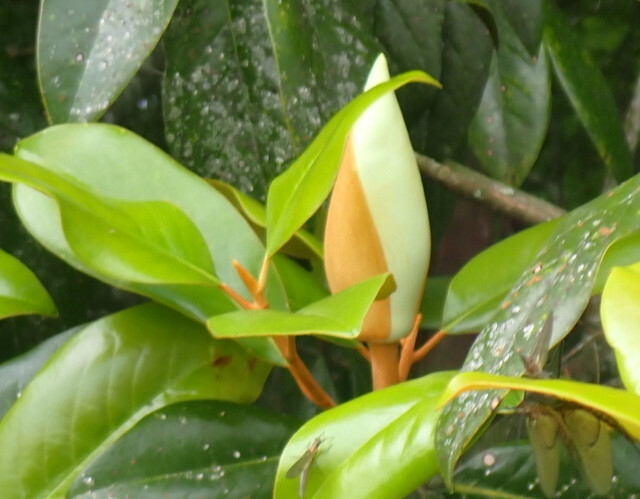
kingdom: Plantae
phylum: Tracheophyta
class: Magnoliopsida
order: Magnoliales
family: Magnoliaceae
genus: Magnolia
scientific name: Magnolia grandiflora
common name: Southern magnolia
